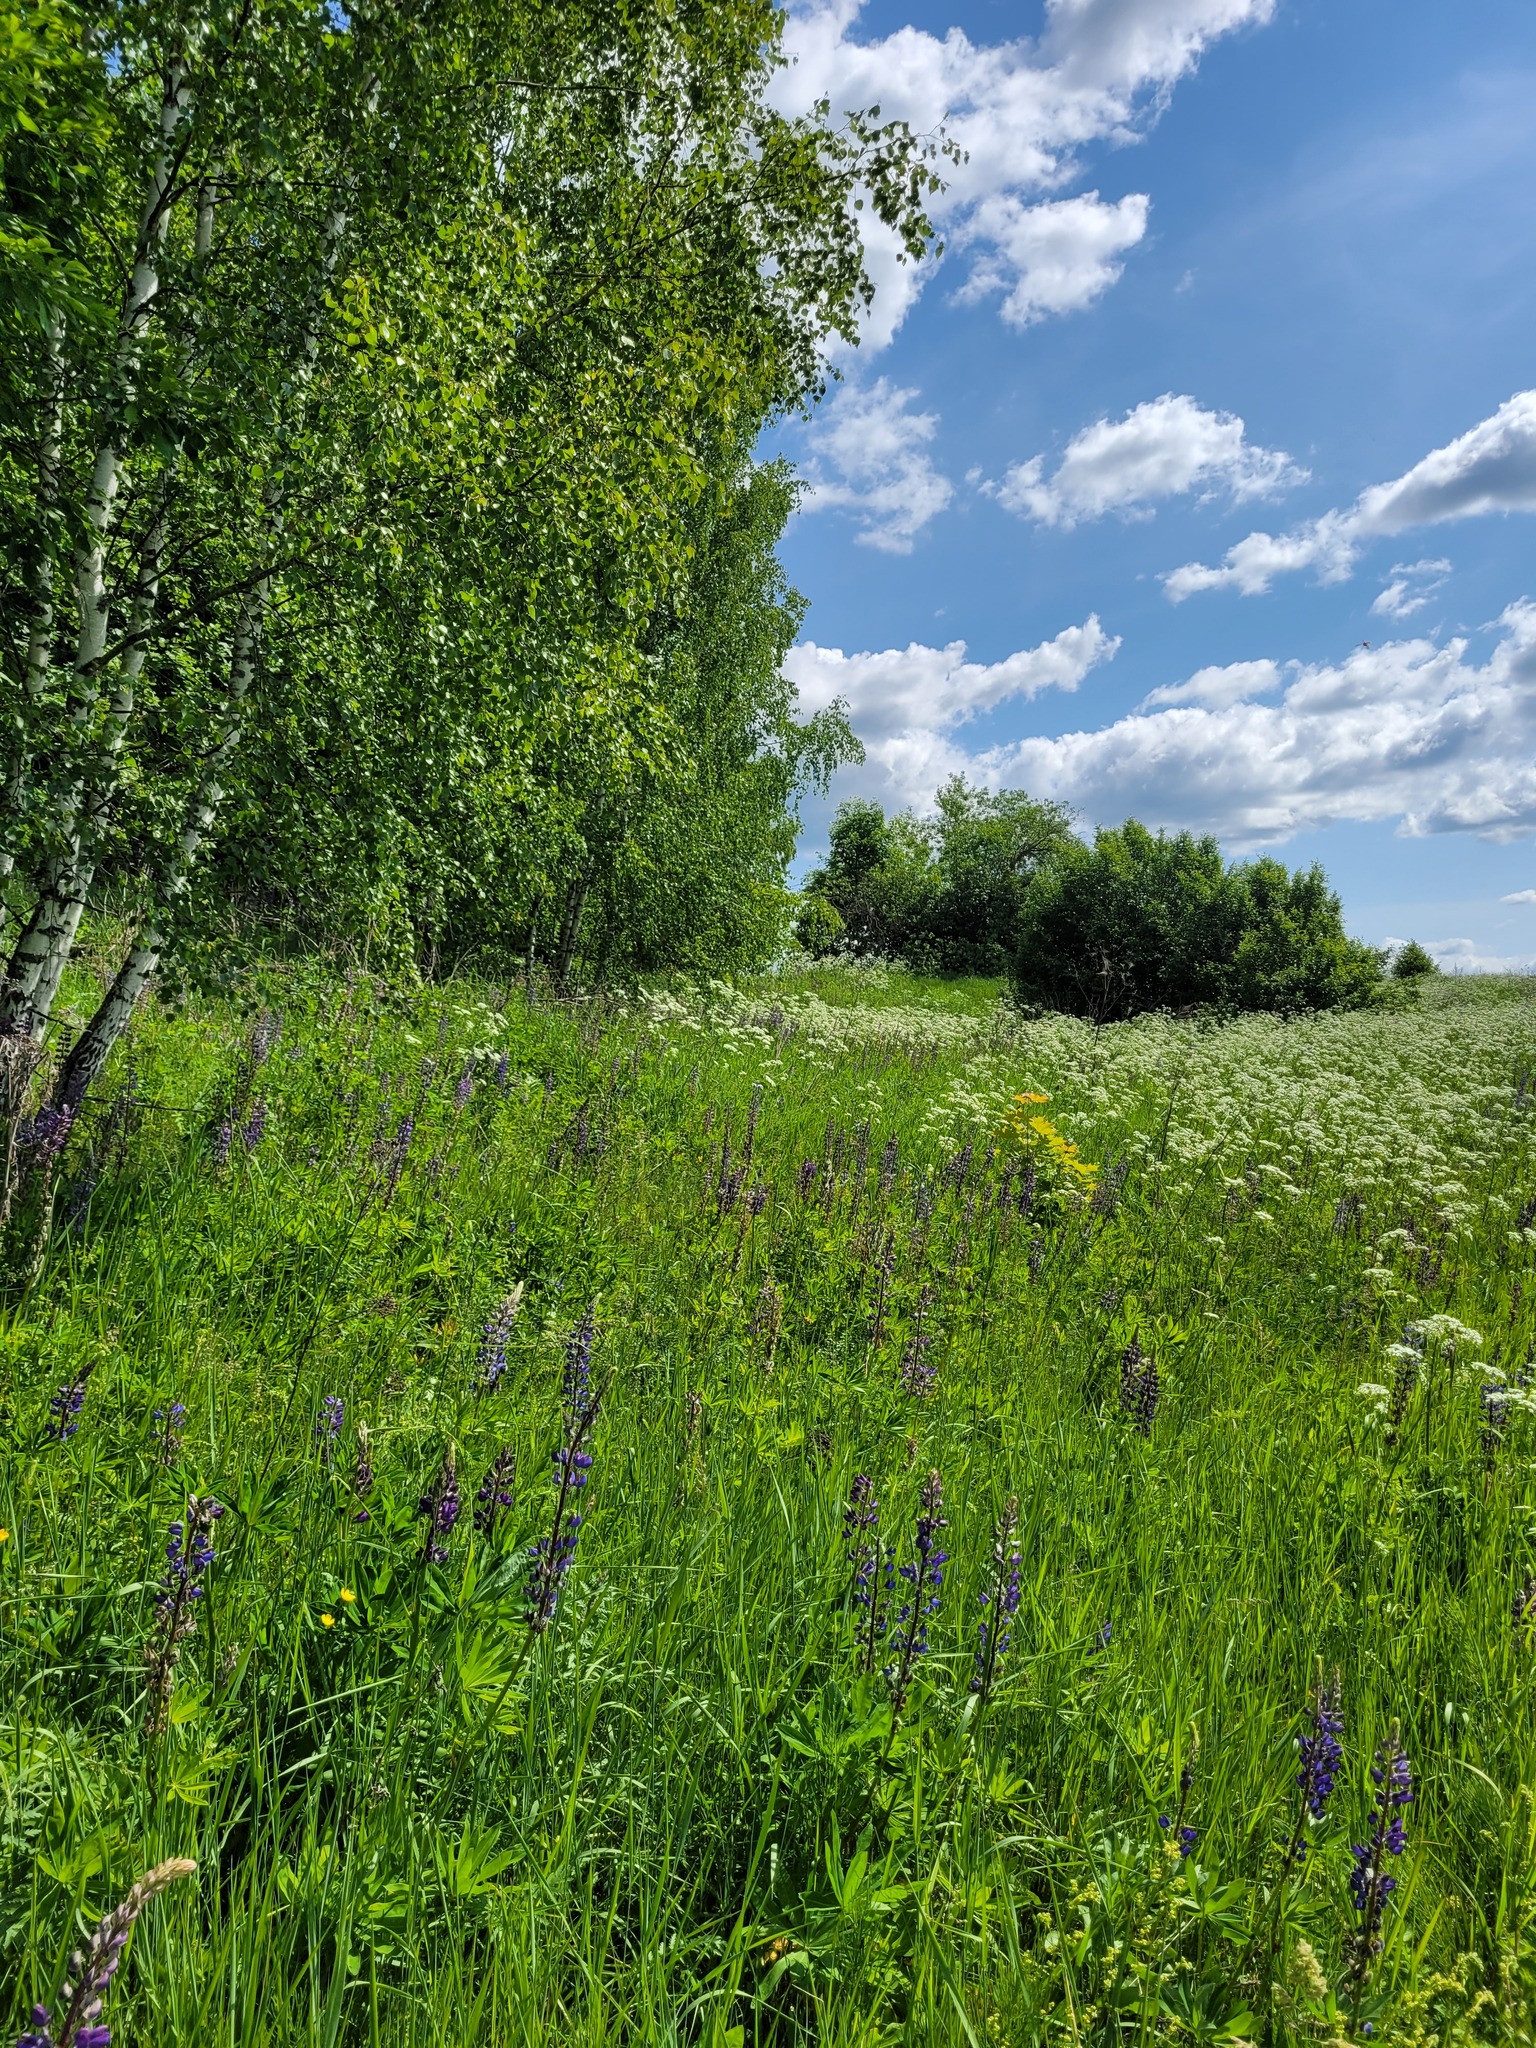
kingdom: Plantae
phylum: Tracheophyta
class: Magnoliopsida
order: Fabales
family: Fabaceae
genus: Lupinus
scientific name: Lupinus polyphyllus
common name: Garden lupin
